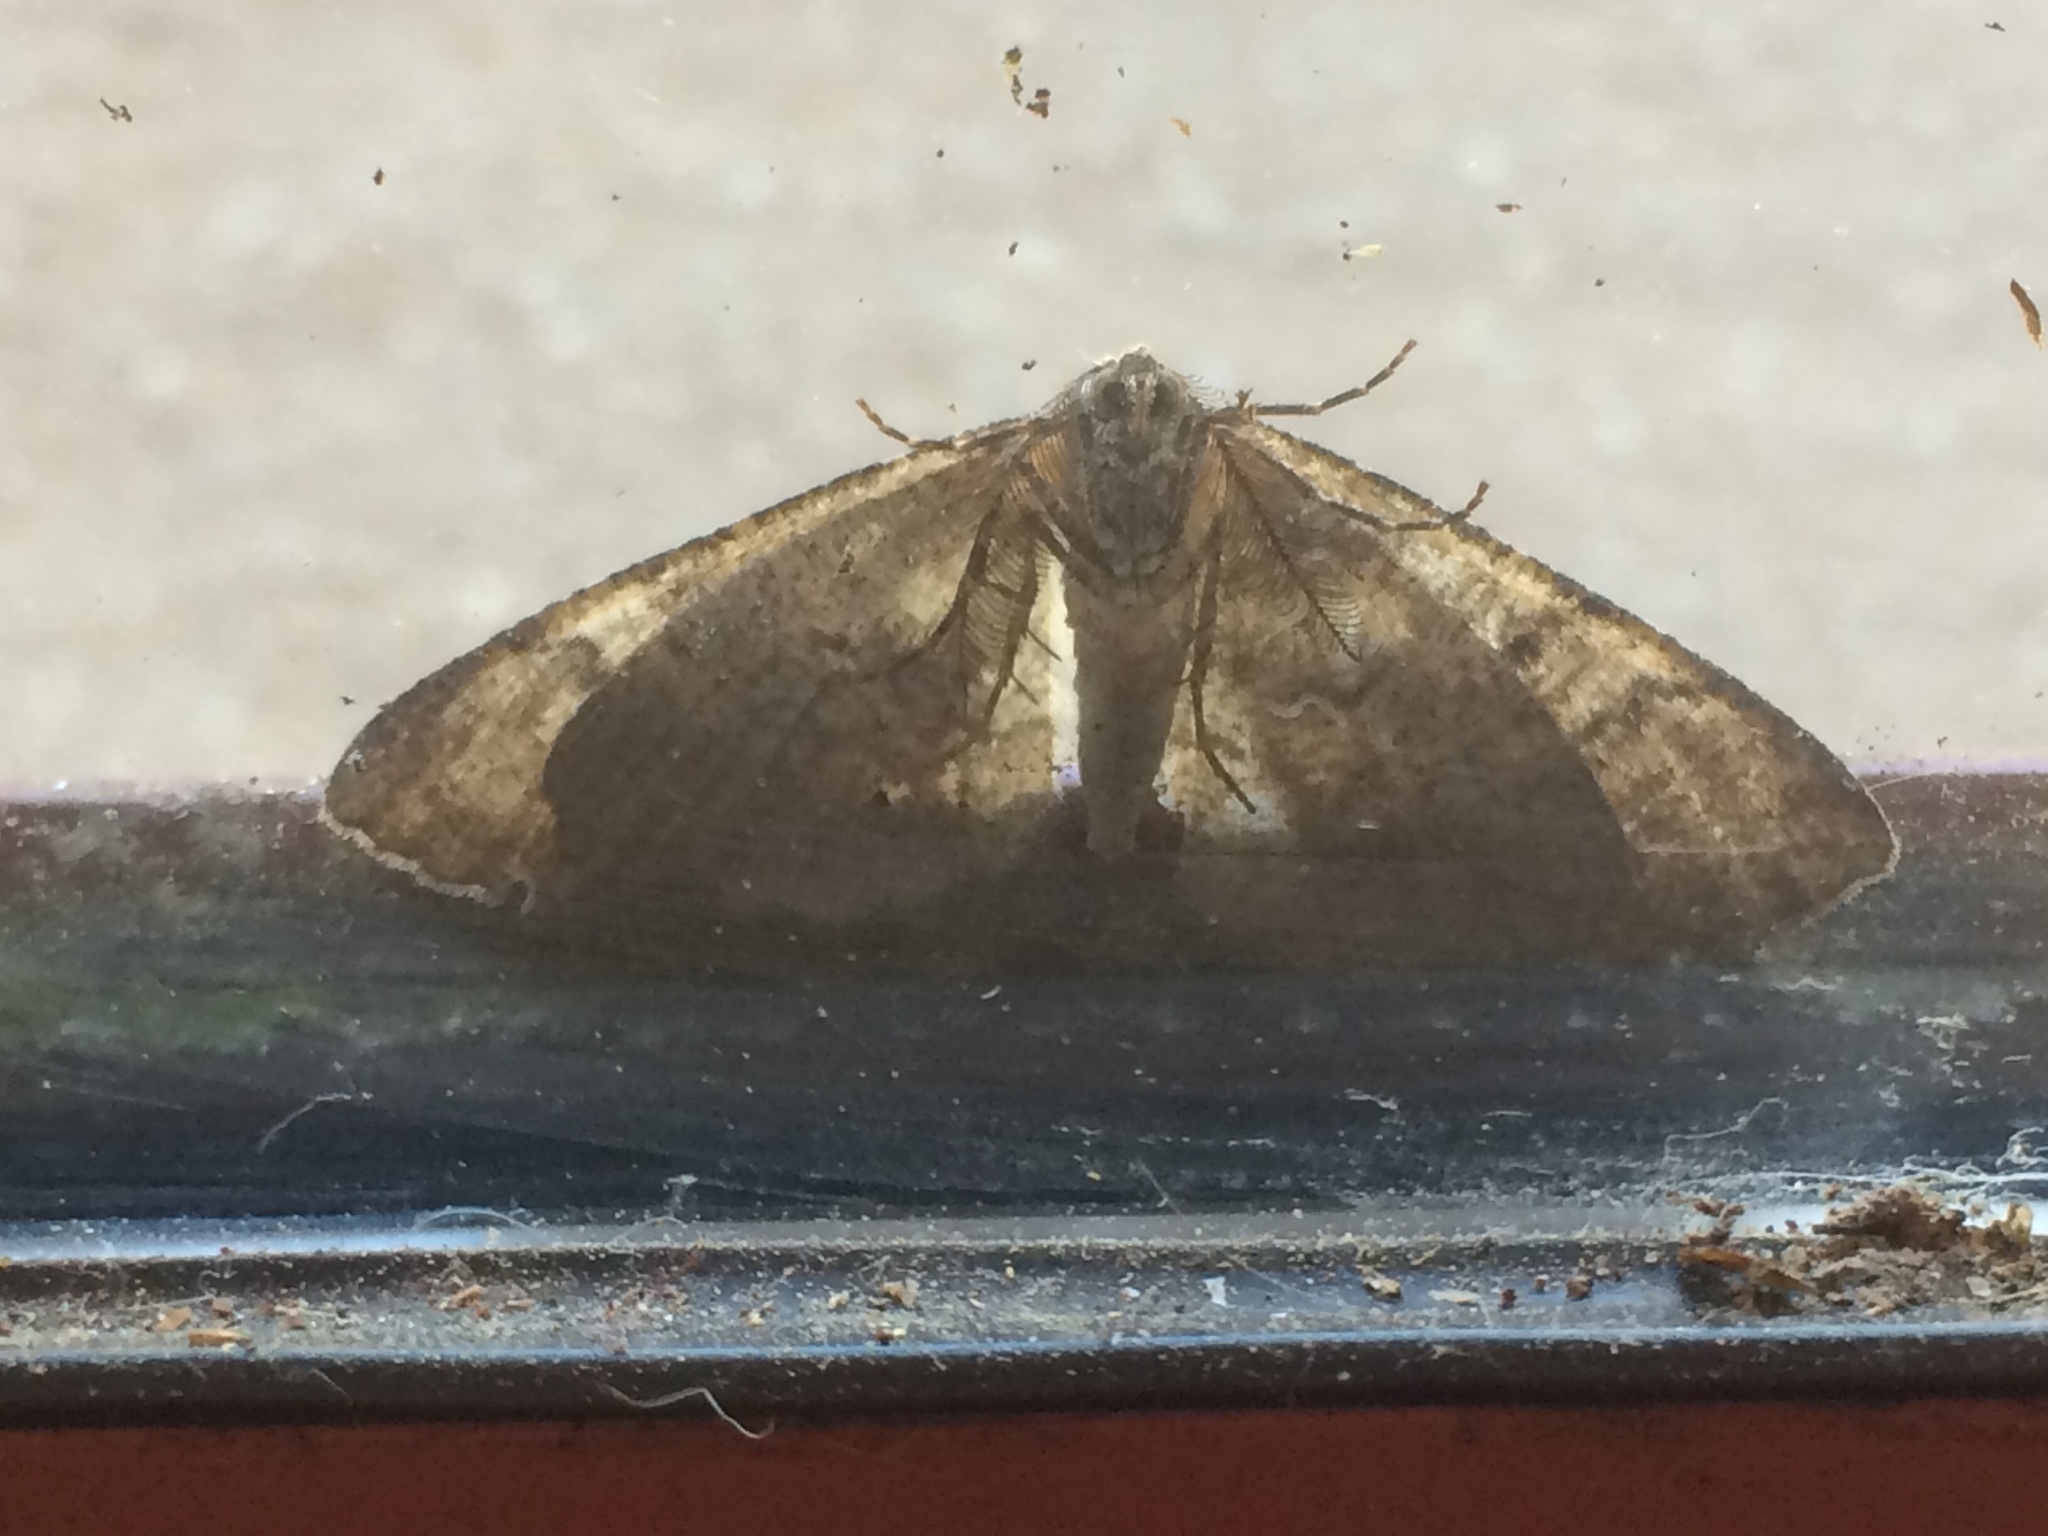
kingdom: Animalia
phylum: Arthropoda
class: Insecta
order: Lepidoptera
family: Geometridae
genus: Cymatophora
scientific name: Cymatophora approximaria
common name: Giant gray moth
